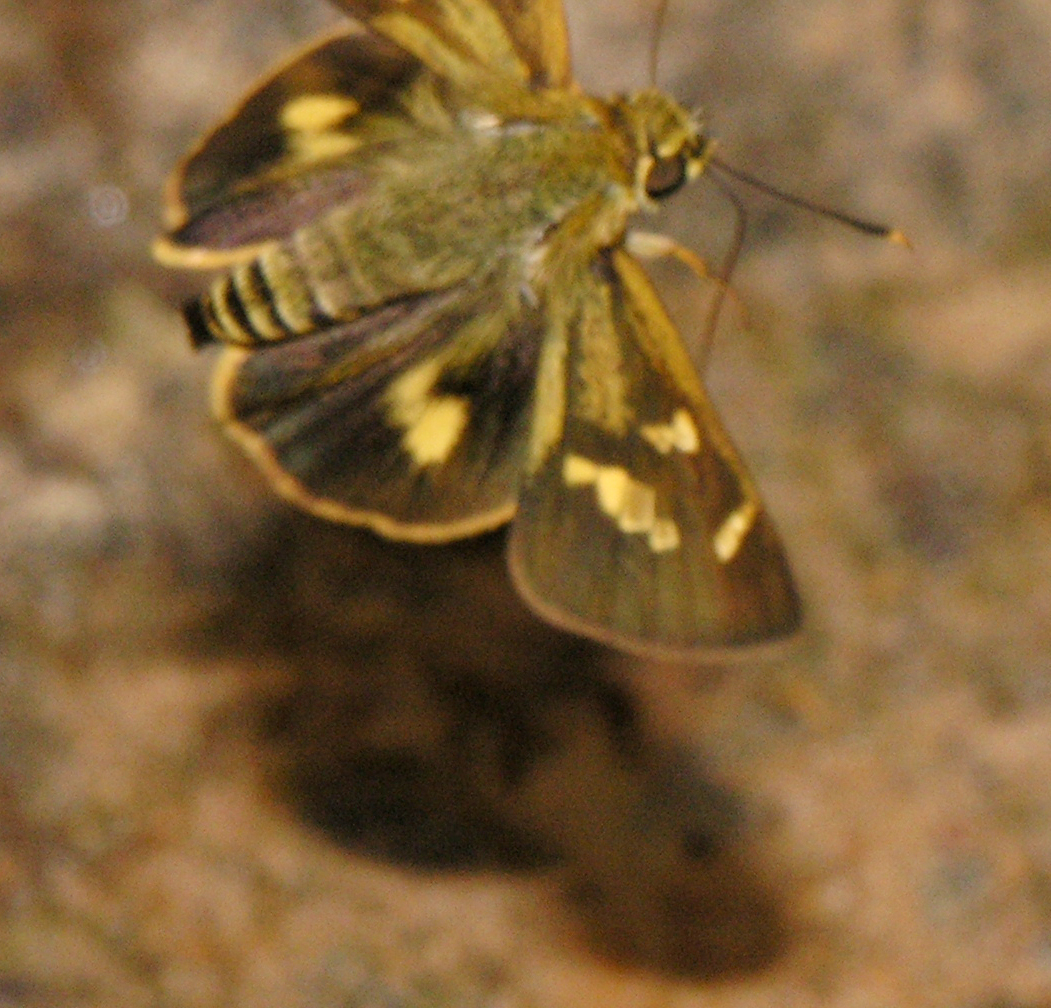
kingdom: Animalia
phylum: Arthropoda
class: Insecta
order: Lepidoptera
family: Hesperiidae
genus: Thoressa
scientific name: Thoressa masoni
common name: Golden ace
